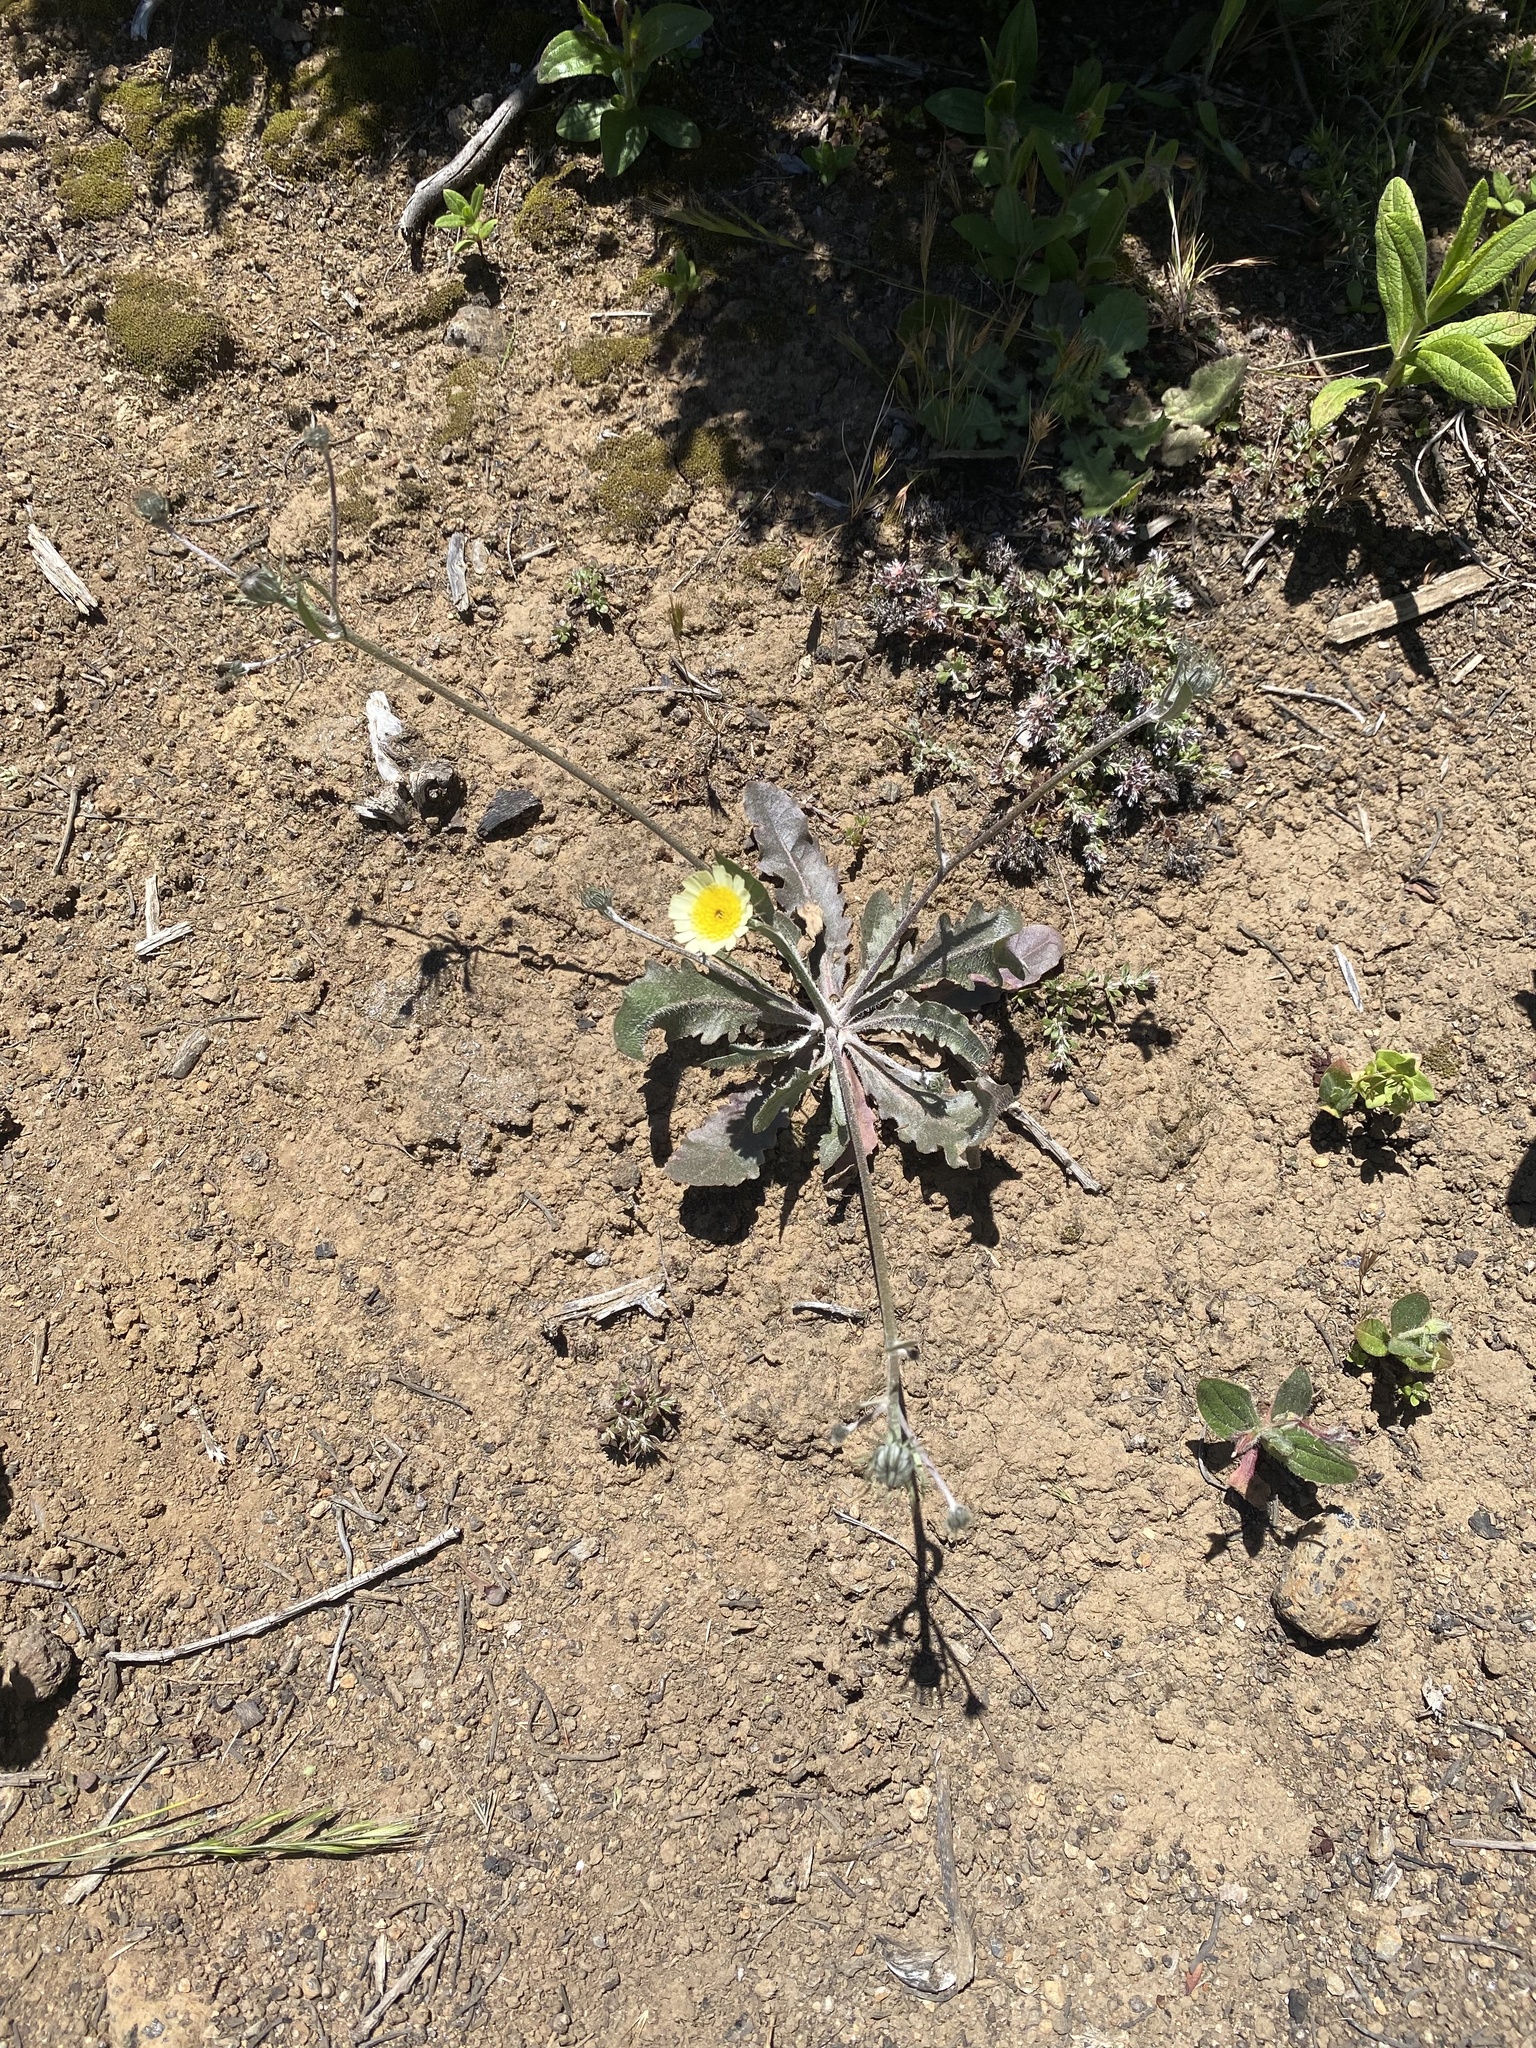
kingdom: Plantae
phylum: Tracheophyta
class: Magnoliopsida
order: Asterales
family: Asteraceae
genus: Tolpis
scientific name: Tolpis barbata
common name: Yellow hawkweed
